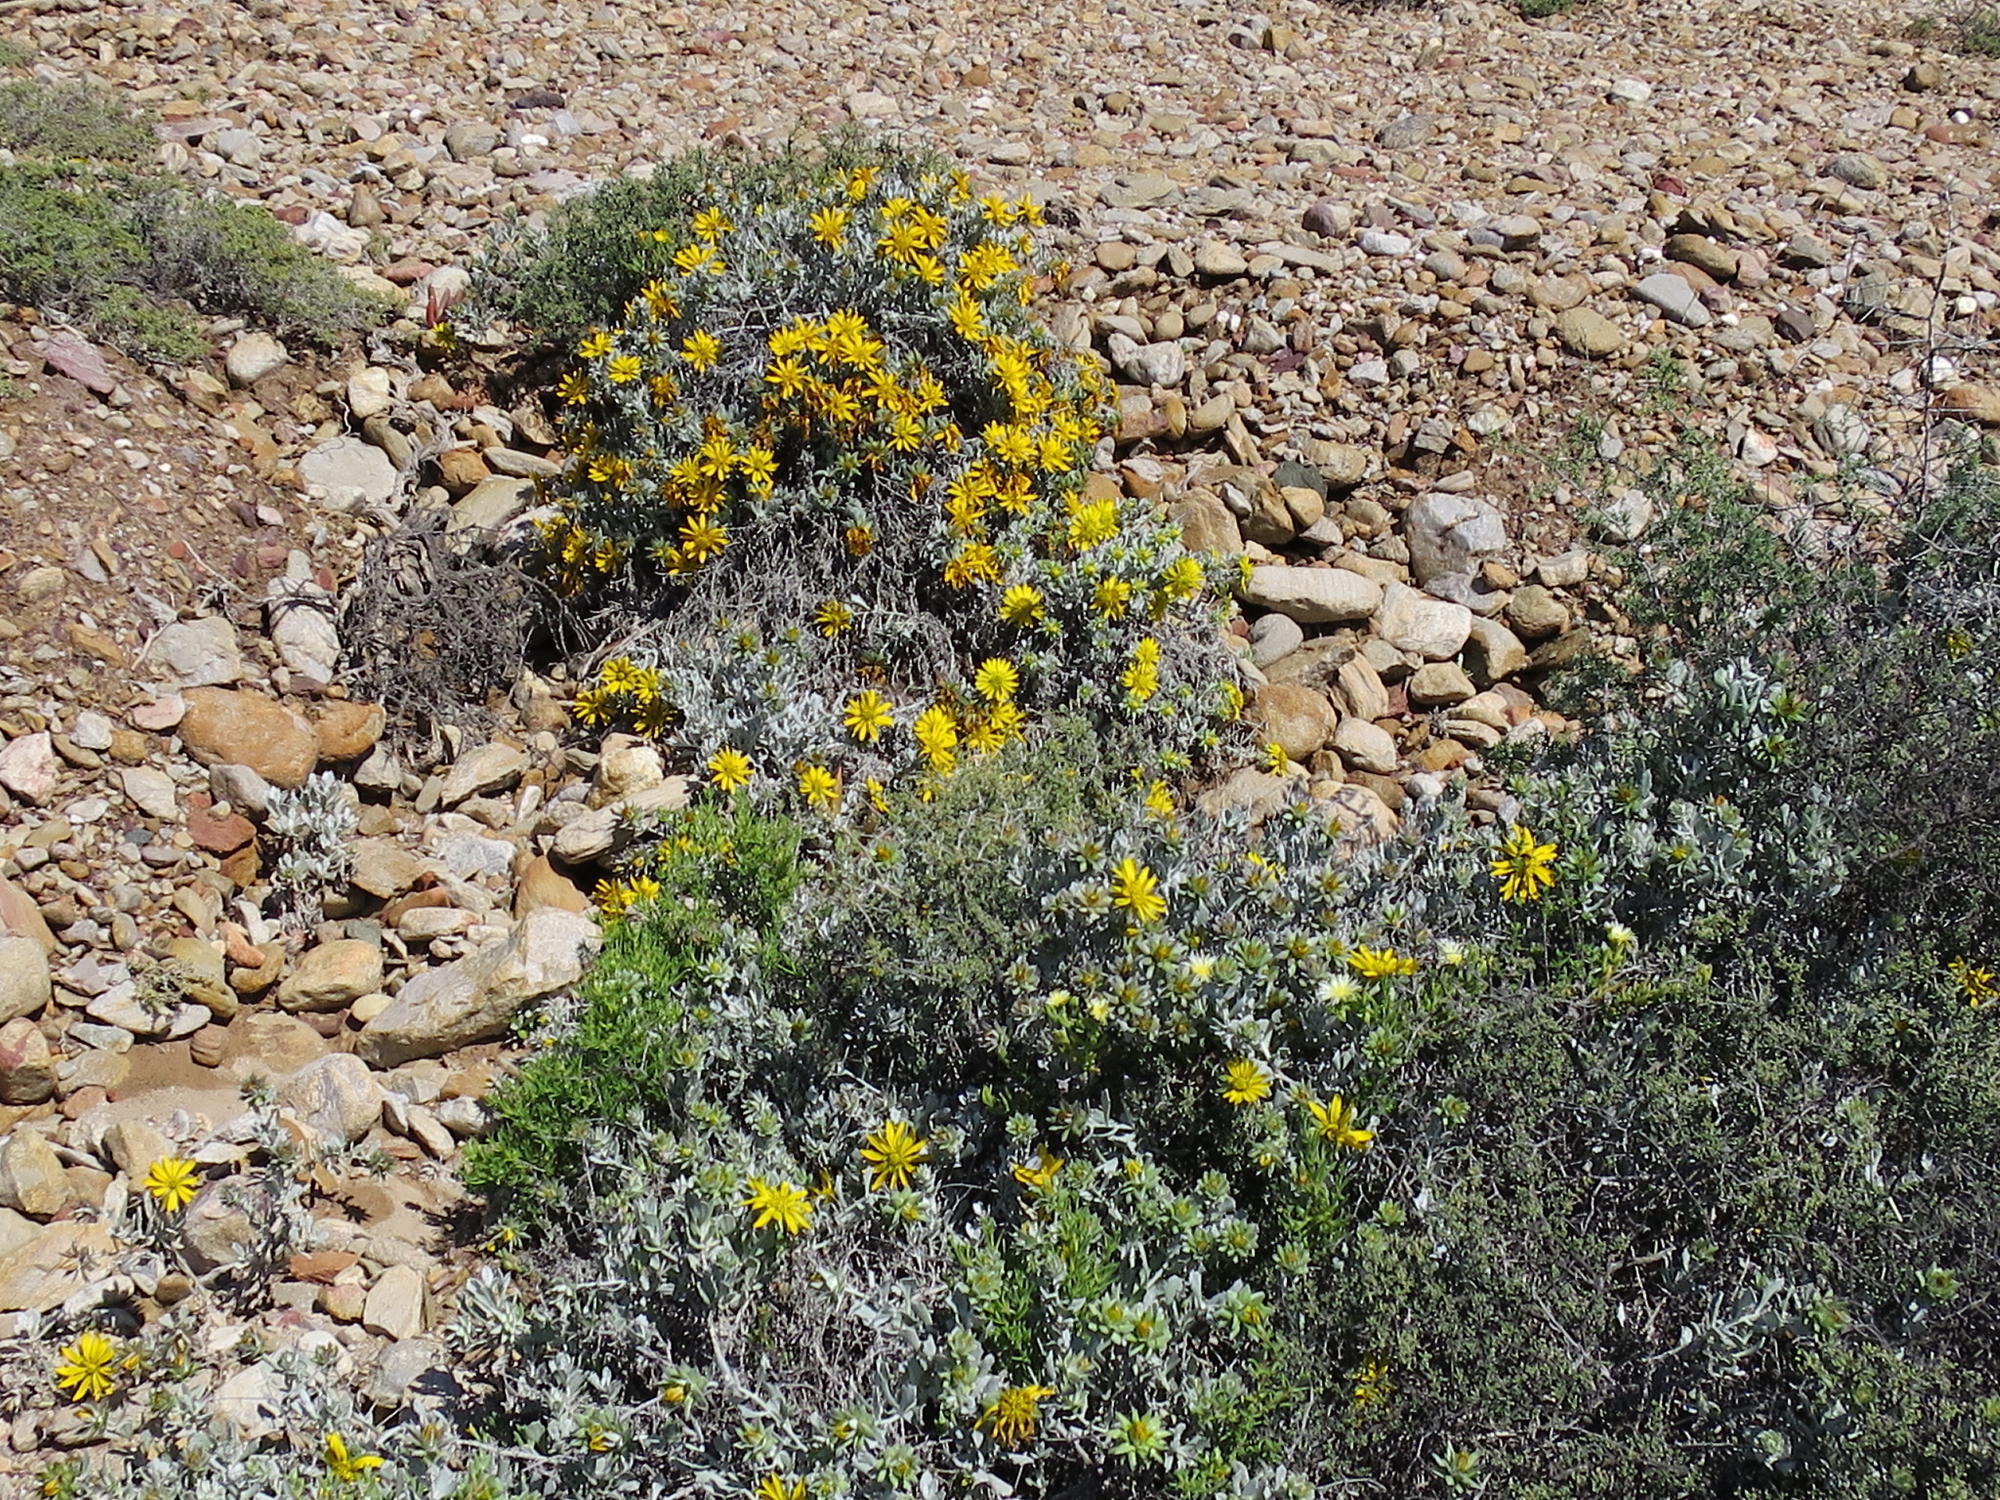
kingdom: Plantae
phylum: Tracheophyta
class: Magnoliopsida
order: Asterales
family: Asteraceae
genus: Berkheya
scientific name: Berkheya cuneata
